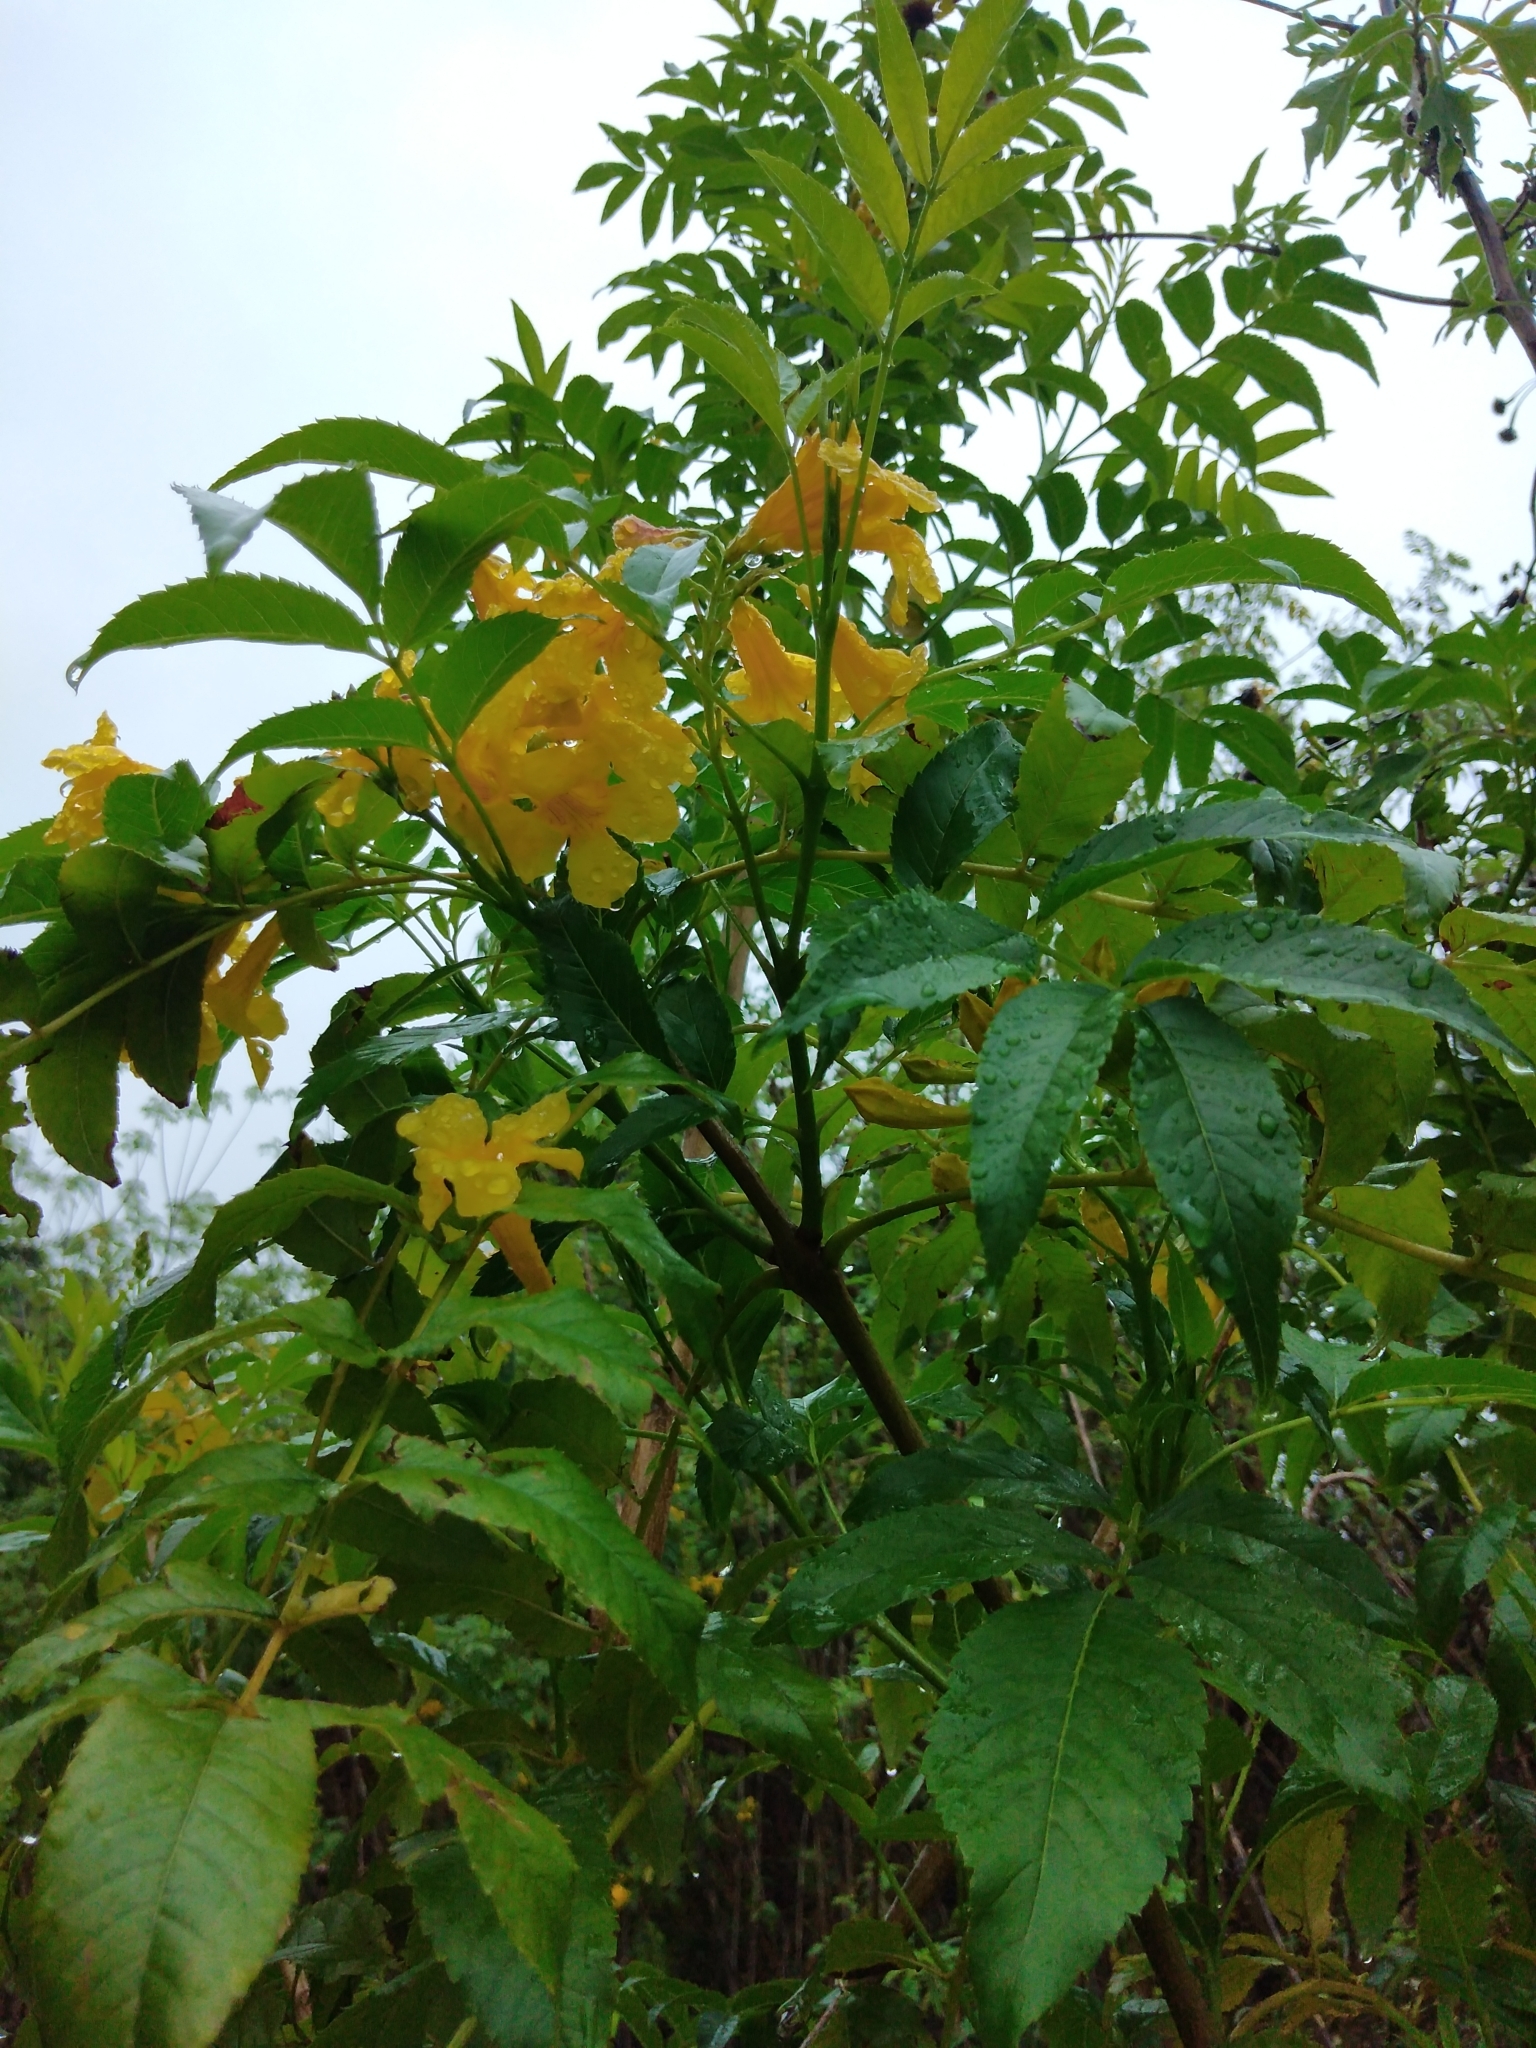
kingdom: Plantae
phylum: Tracheophyta
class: Magnoliopsida
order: Lamiales
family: Bignoniaceae
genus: Tecoma
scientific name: Tecoma stans
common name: Yellow trumpetbush
